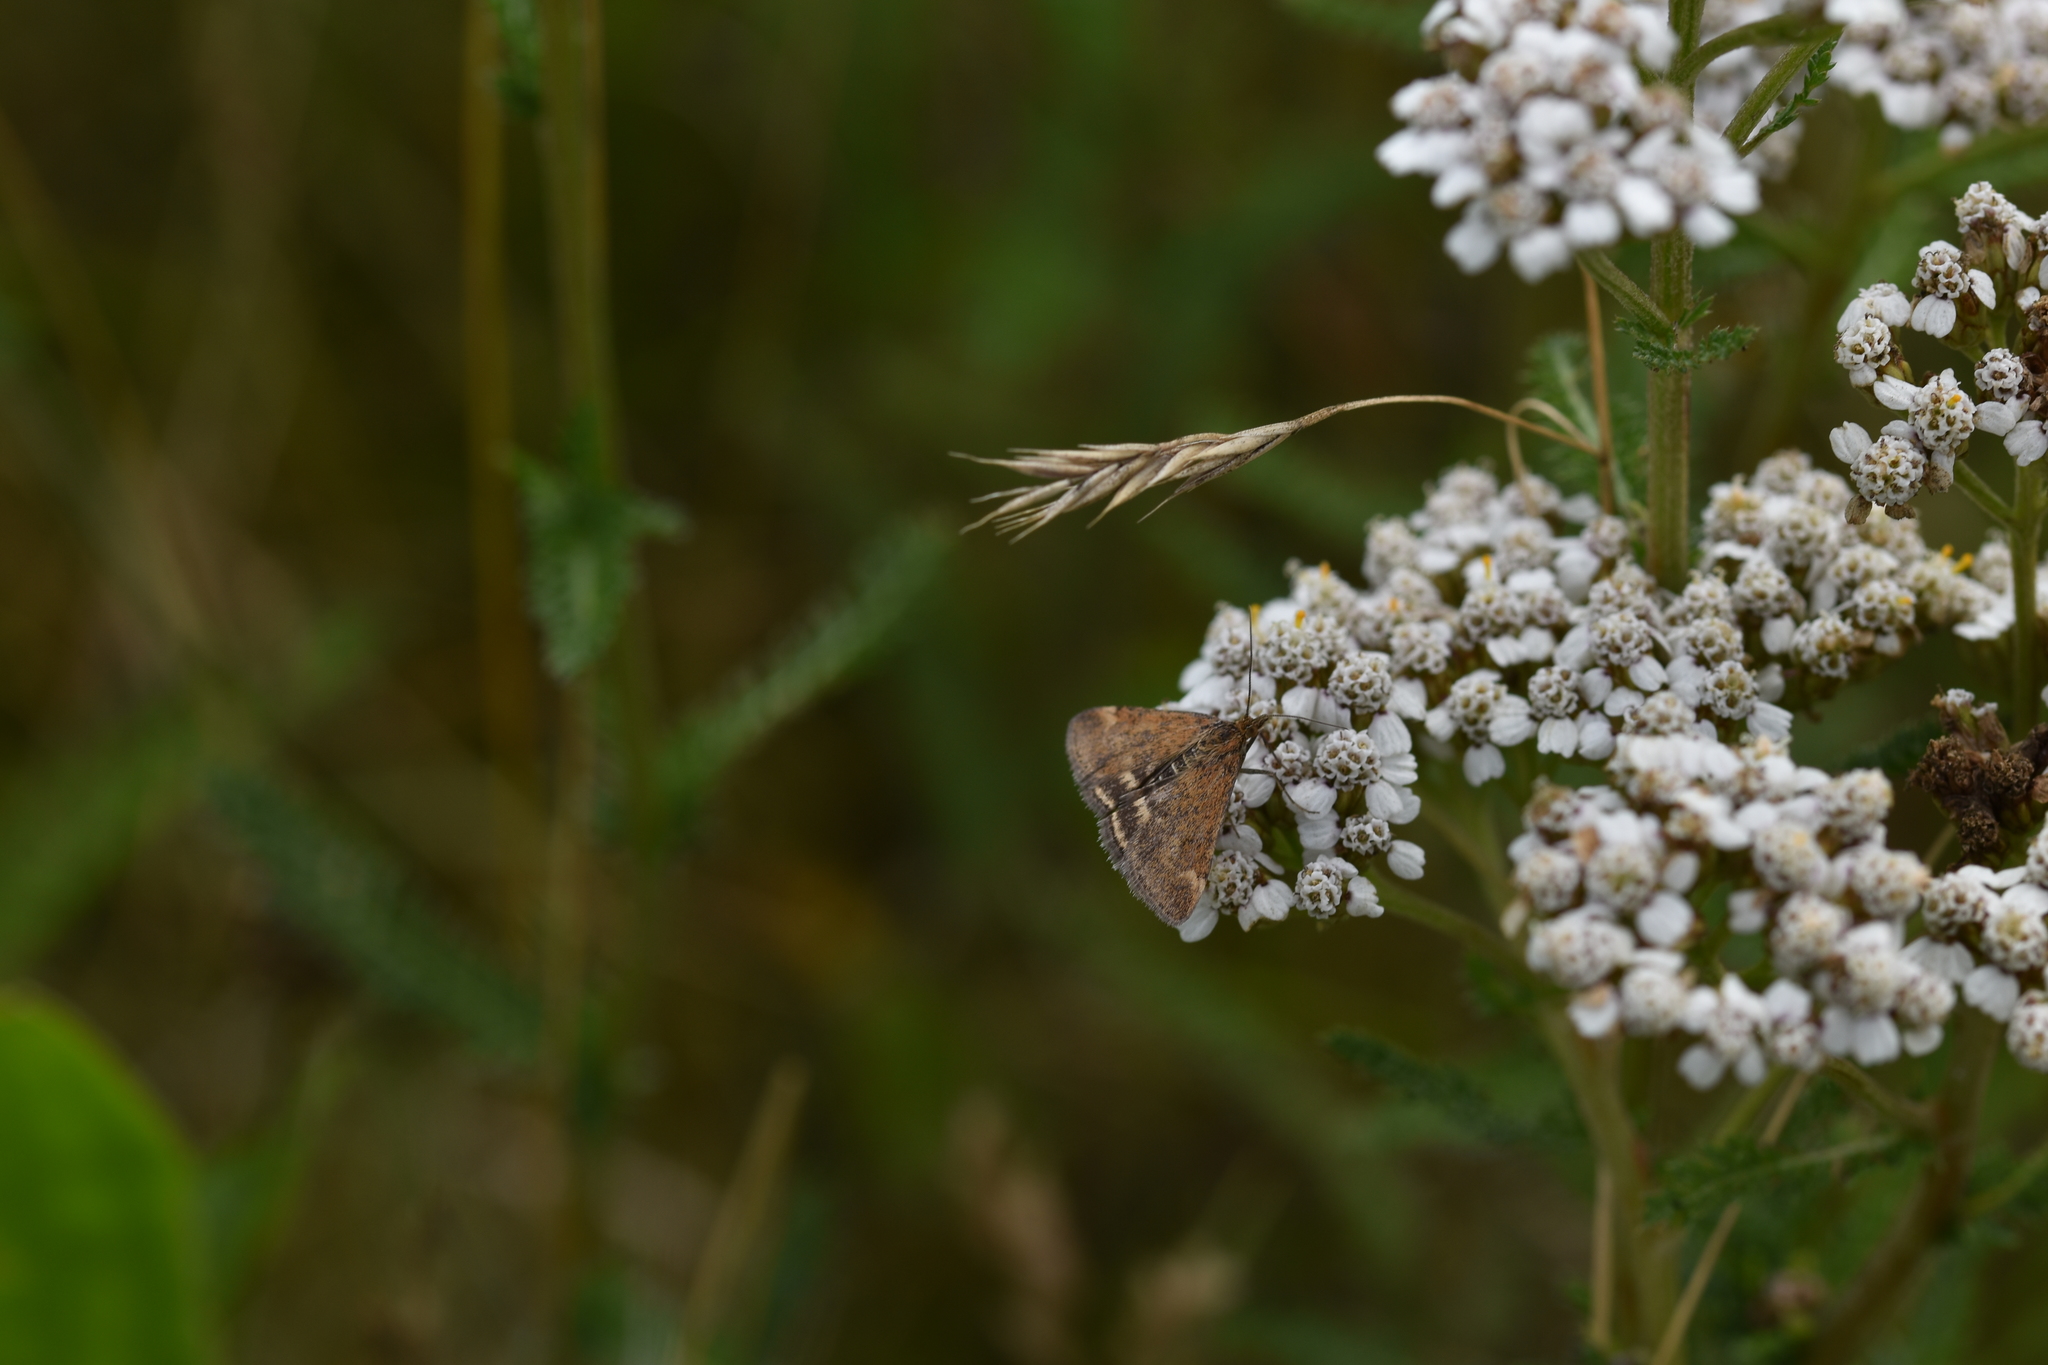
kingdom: Animalia
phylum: Arthropoda
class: Insecta
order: Lepidoptera
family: Crambidae
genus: Pyrausta
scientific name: Pyrausta despicata
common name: Straw-barred pearl
